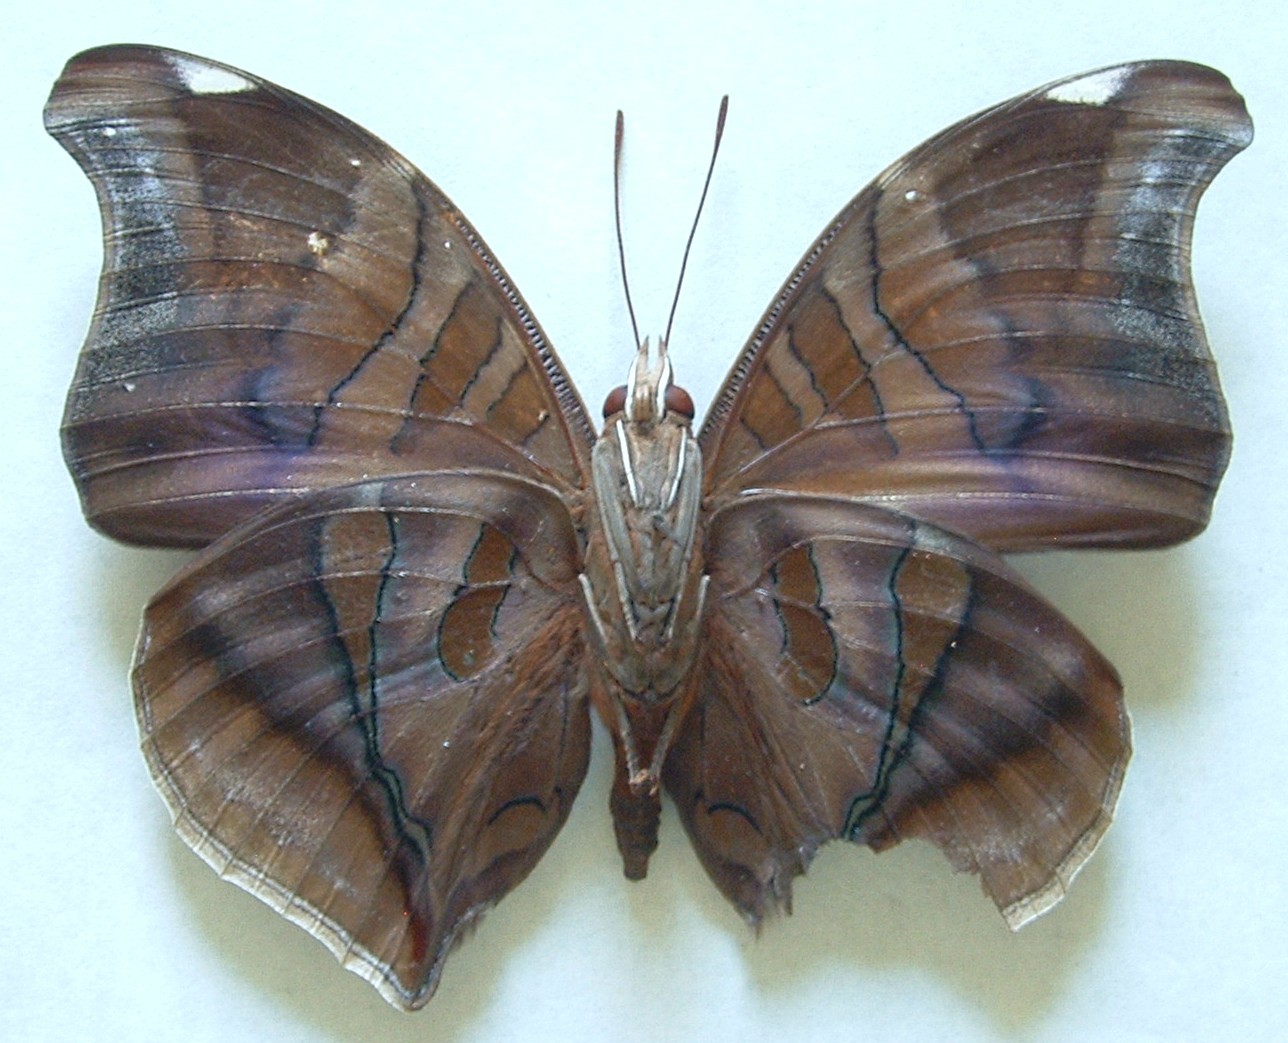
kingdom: Animalia
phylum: Arthropoda
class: Insecta
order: Lepidoptera
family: Nymphalidae
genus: Historis
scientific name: Historis odius
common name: Orion cecropian
